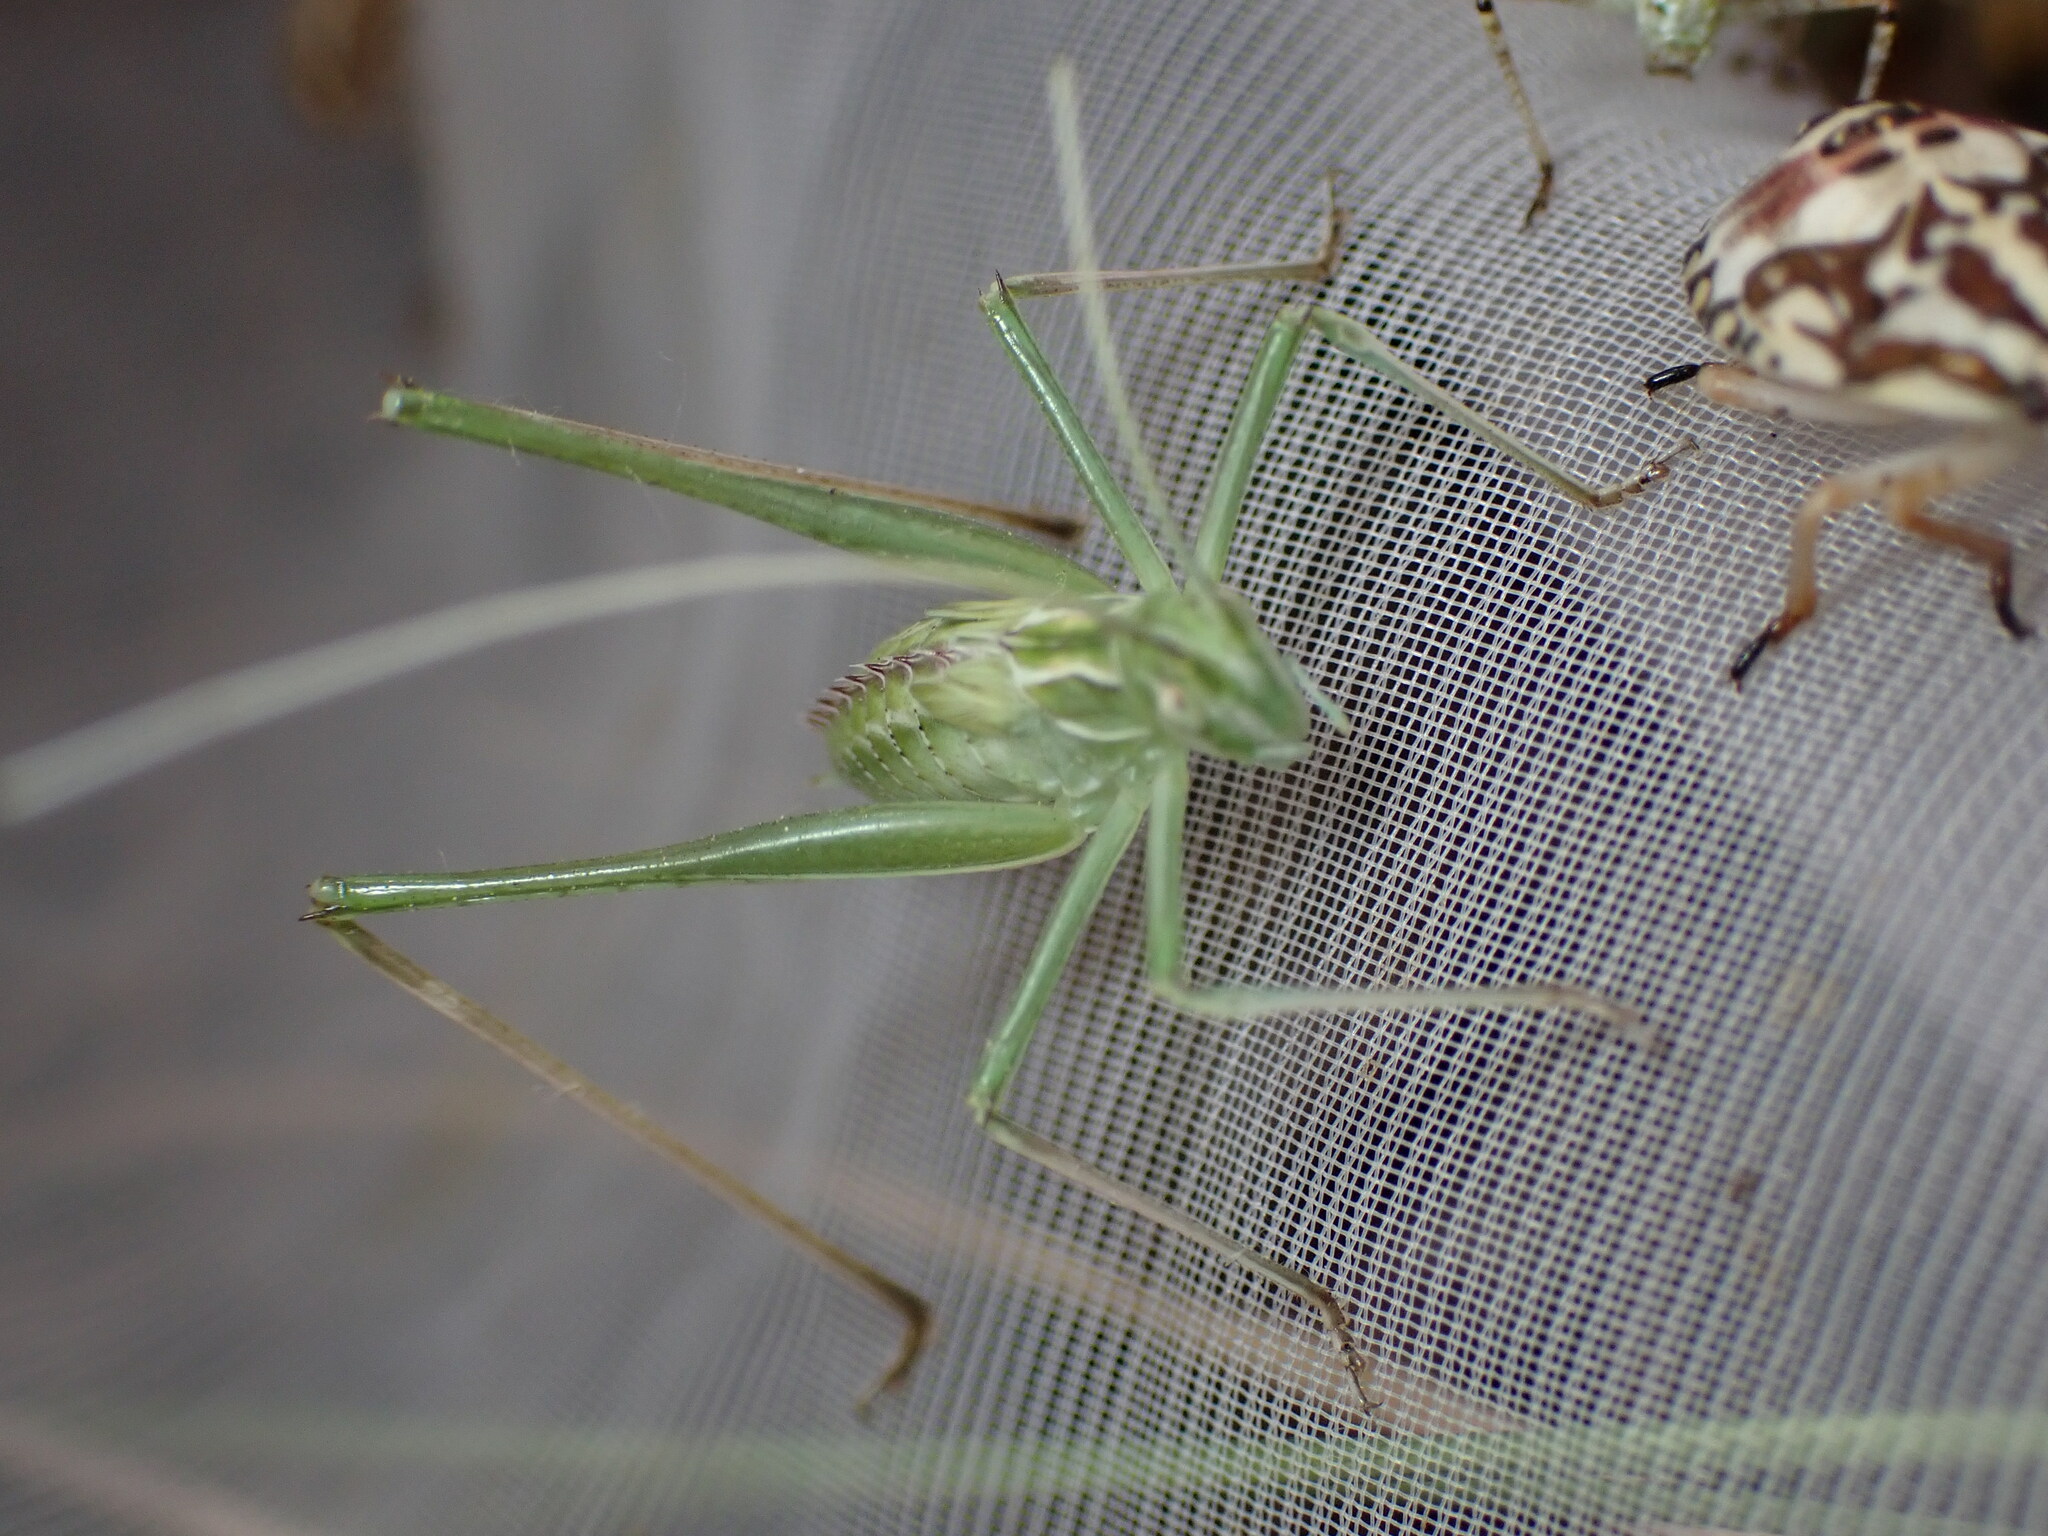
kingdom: Animalia
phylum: Arthropoda
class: Insecta
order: Orthoptera
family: Tettigoniidae
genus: Tylopsis
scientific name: Tylopsis lilifolia
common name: Lily bush-cricket
